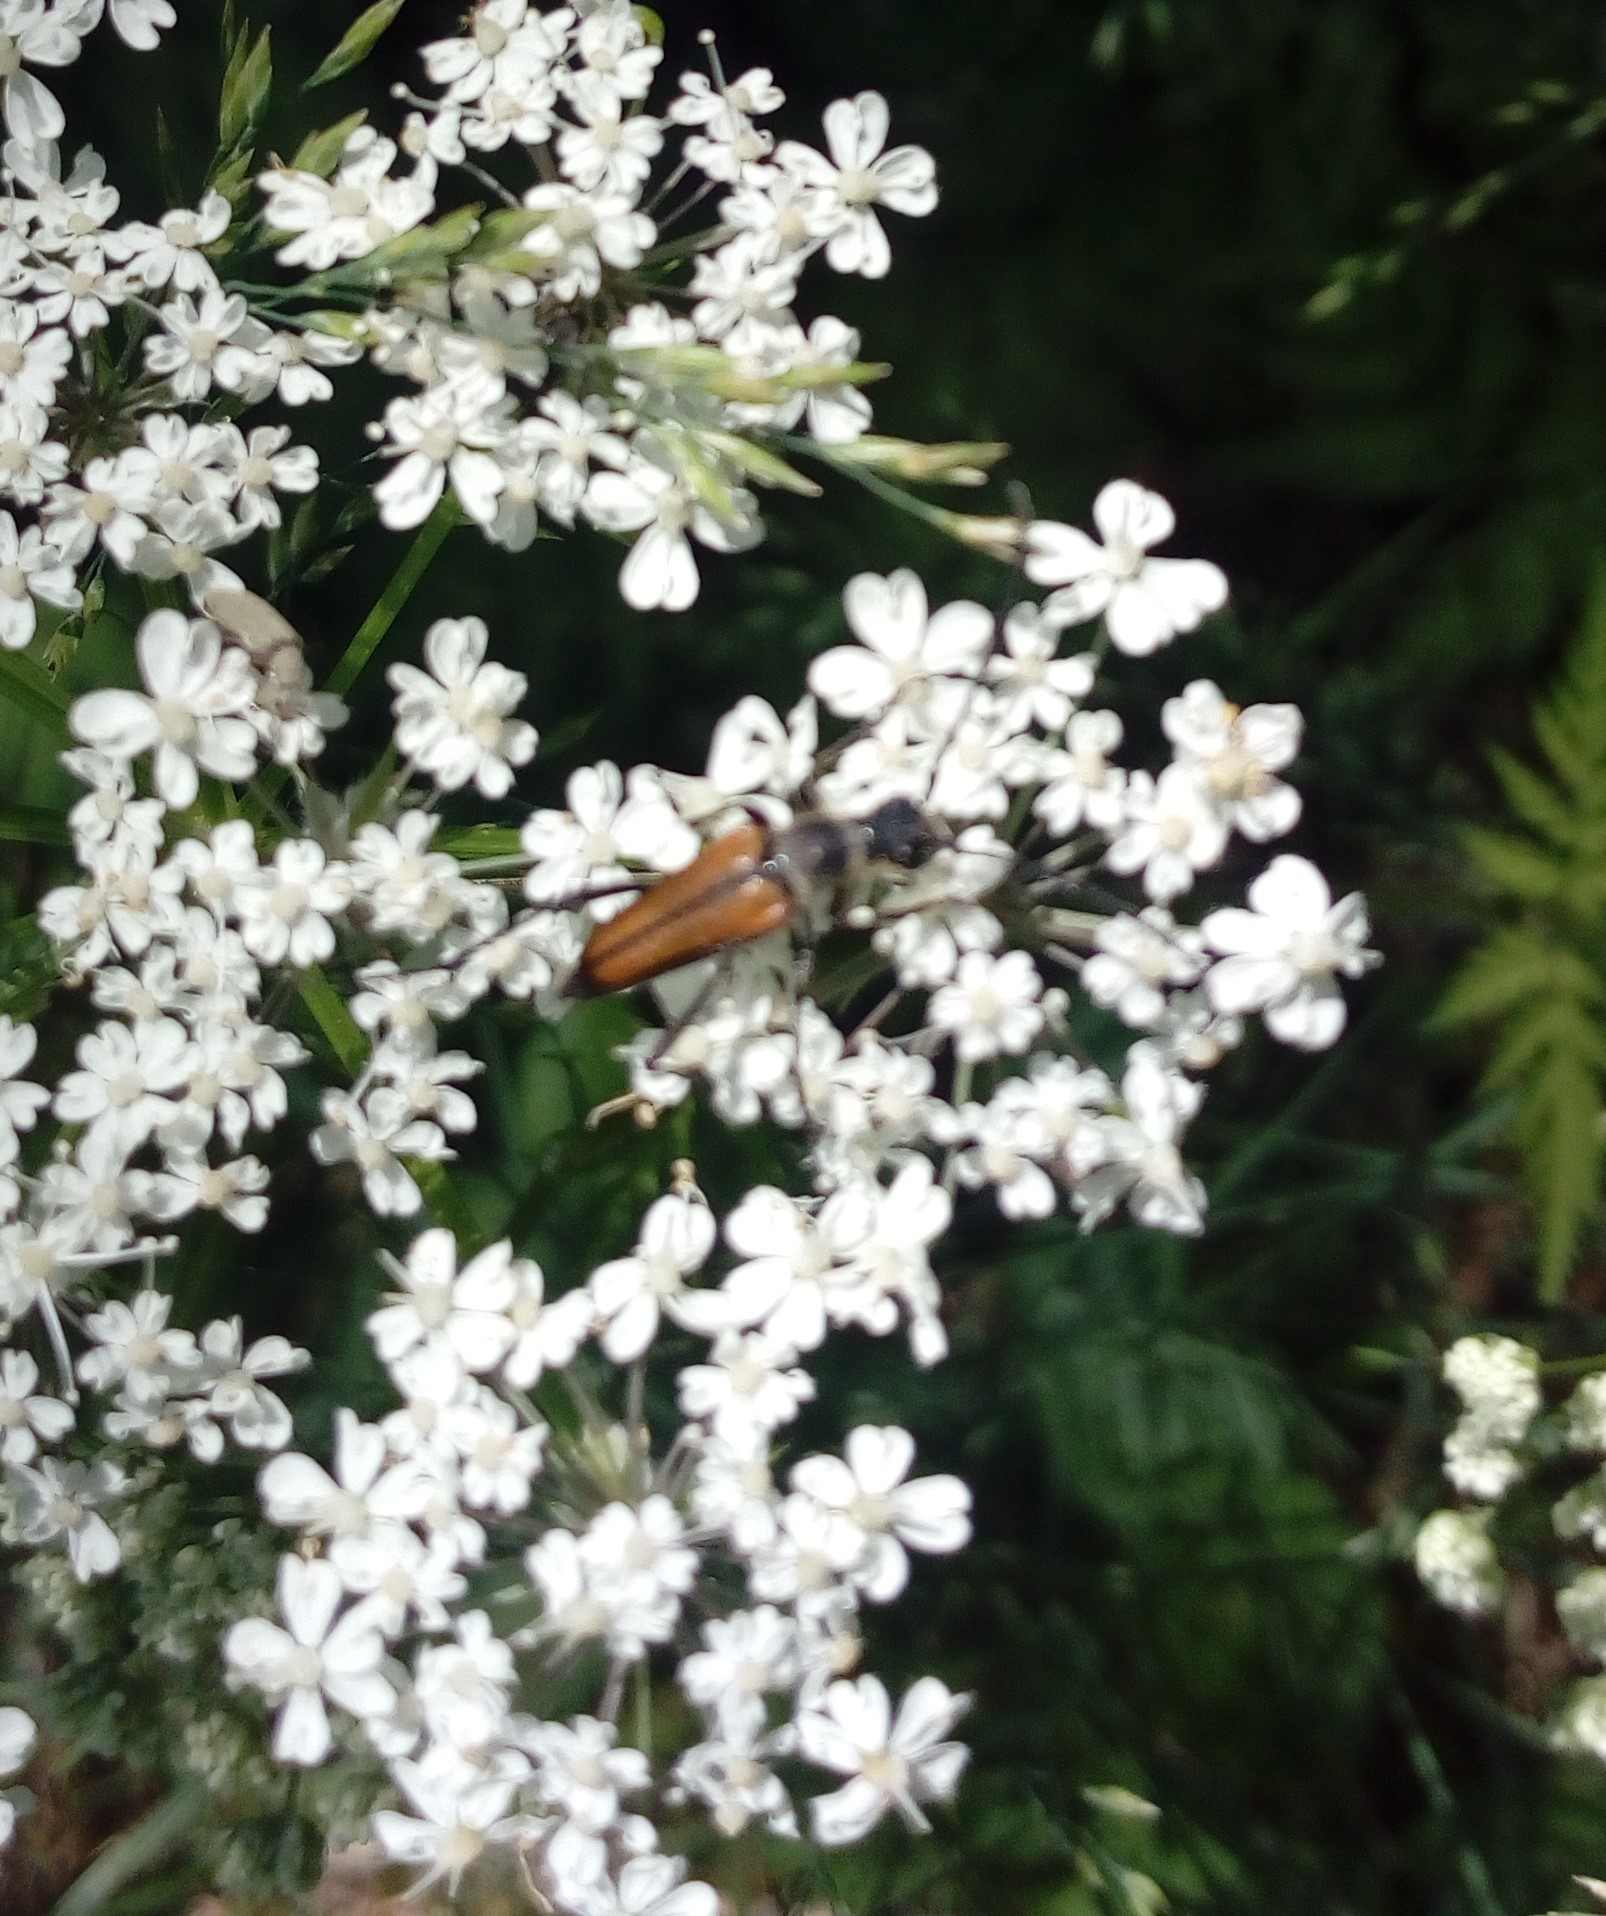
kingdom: Animalia
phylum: Arthropoda
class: Insecta
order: Coleoptera
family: Cerambycidae
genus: Anastrangalia
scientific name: Anastrangalia dubia
